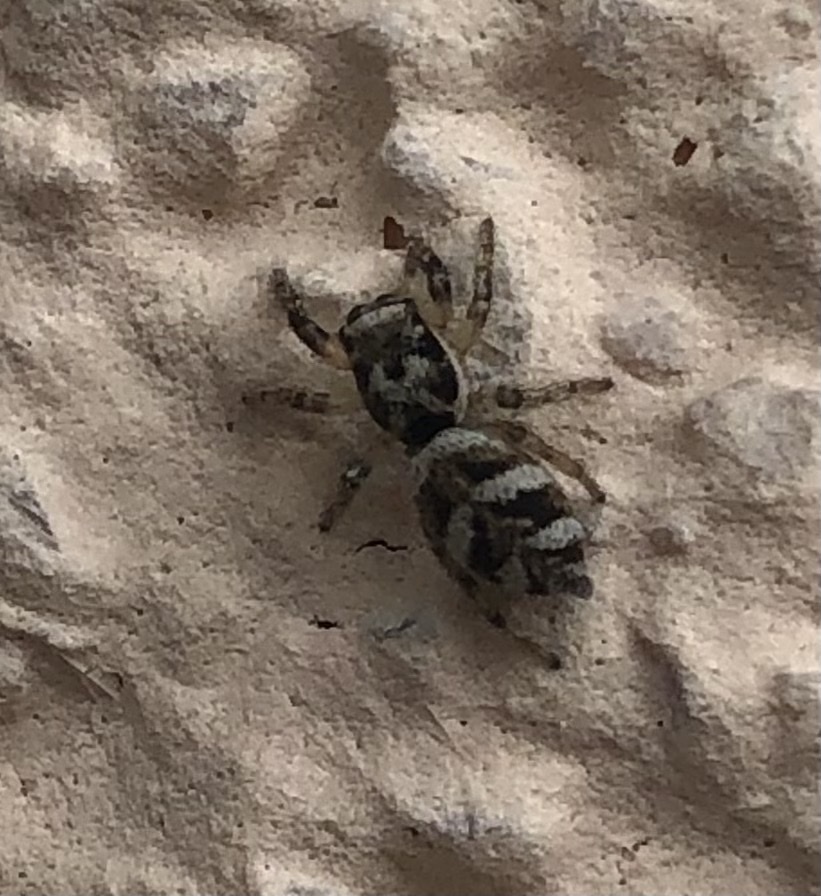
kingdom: Animalia
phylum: Arthropoda
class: Arachnida
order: Araneae
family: Salticidae
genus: Salticus
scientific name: Salticus scenicus
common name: Zebra jumper
